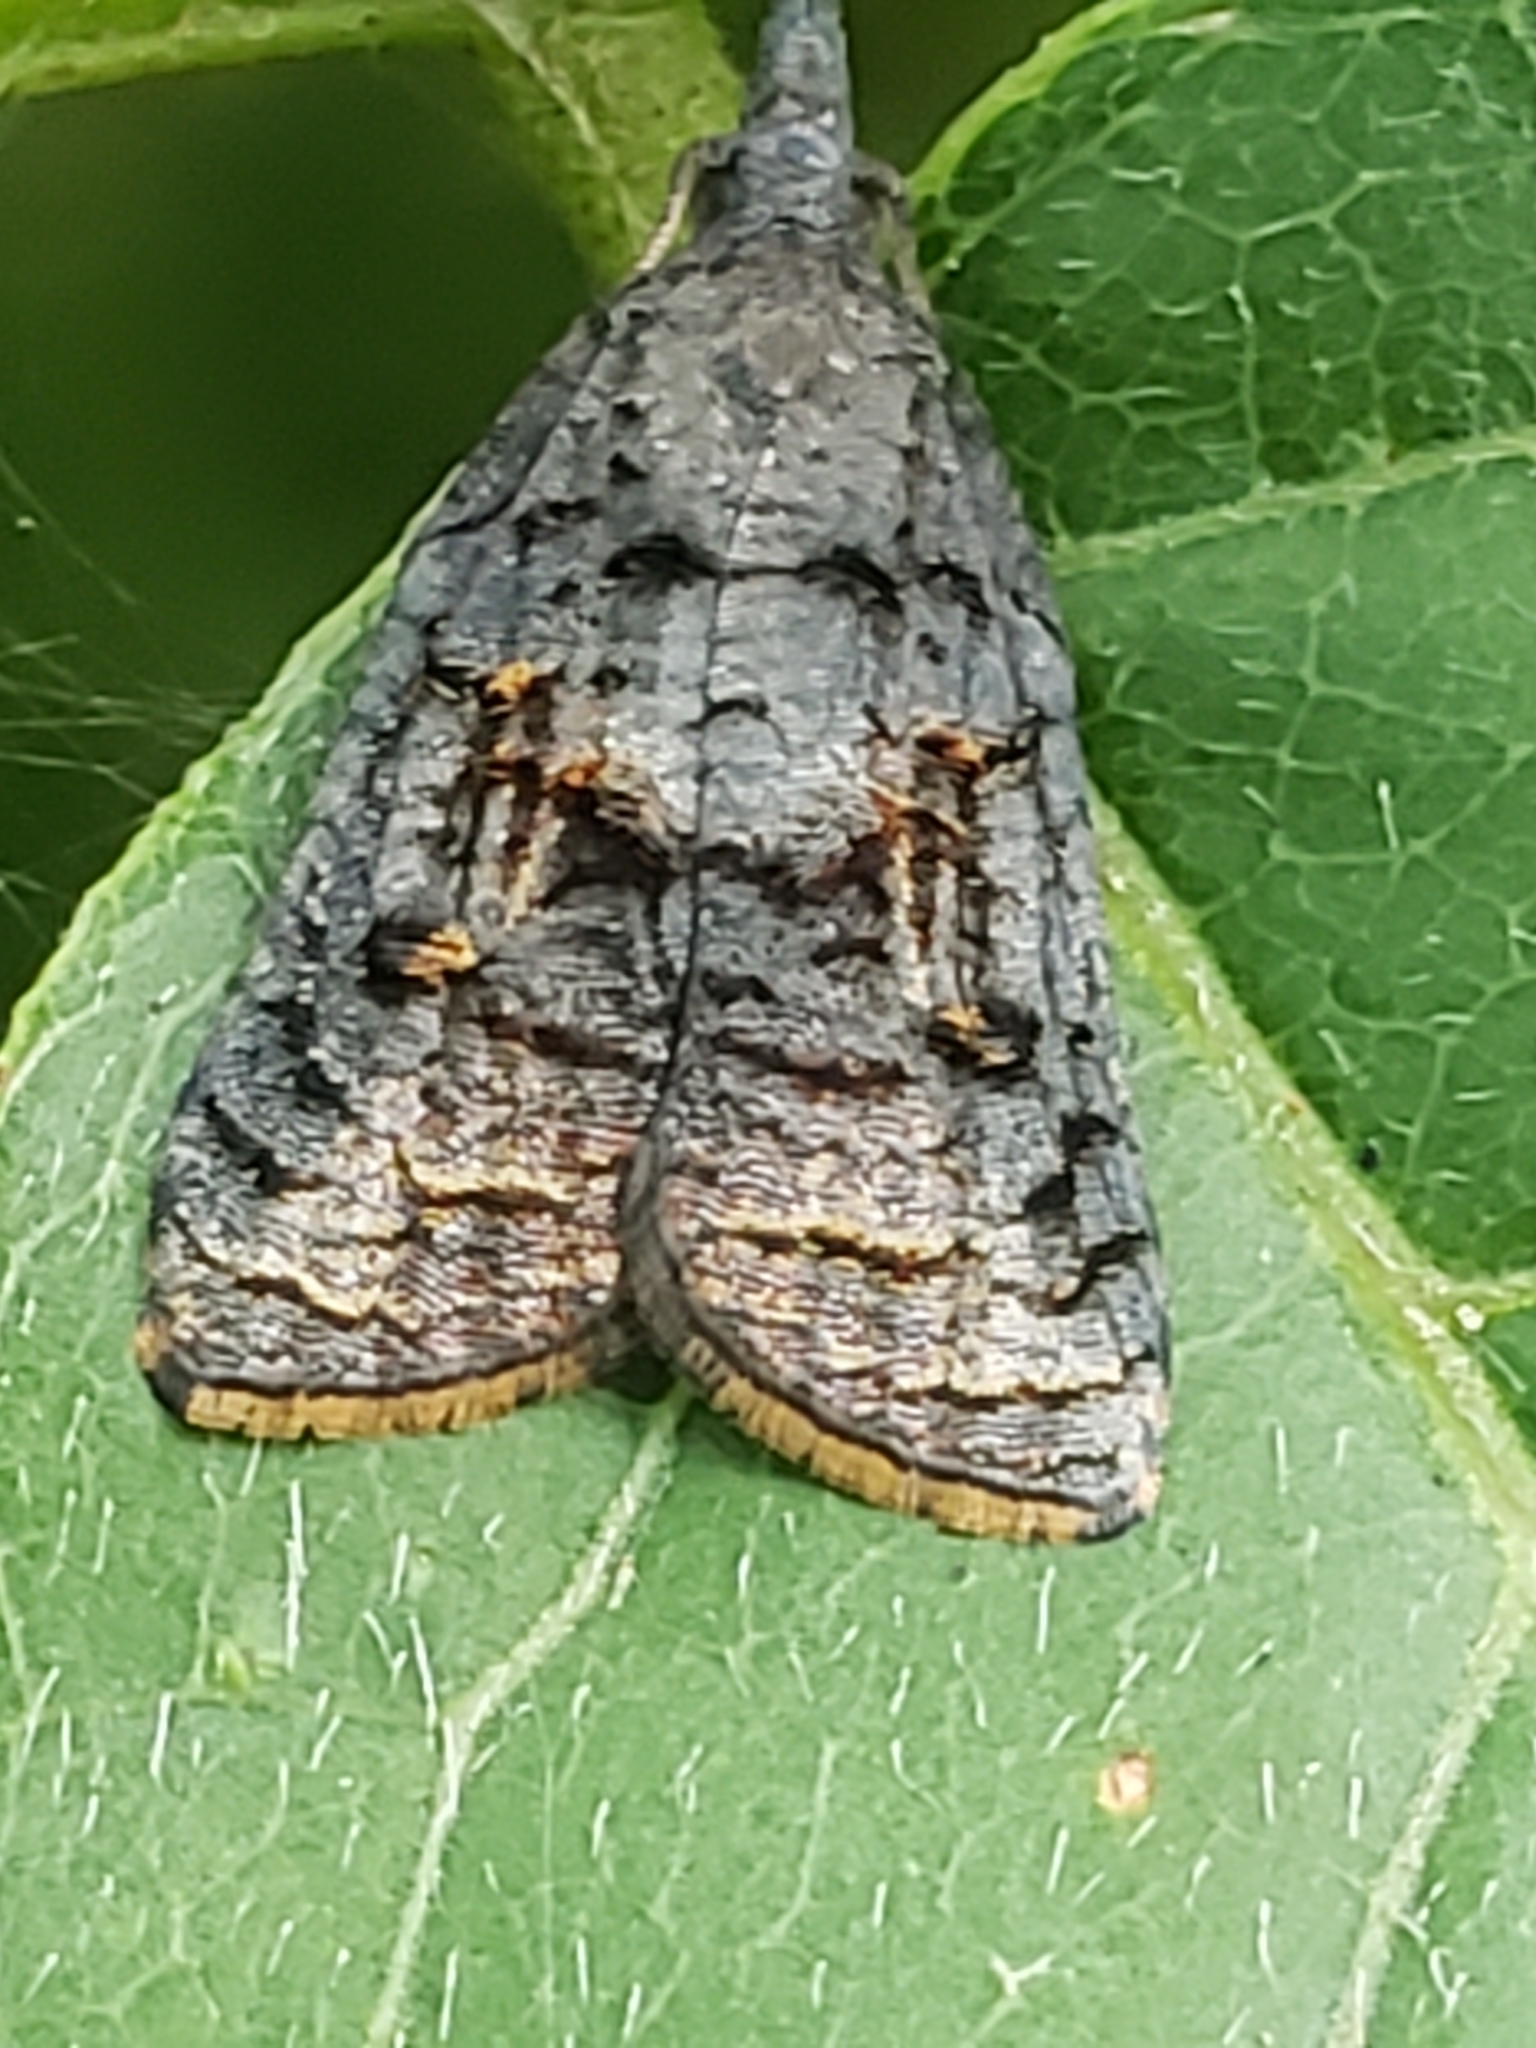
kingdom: Animalia
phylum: Arthropoda
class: Insecta
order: Lepidoptera
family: Tortricidae
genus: Platynota
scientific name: Platynota idaeusalis
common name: Tufted apple bud moth
